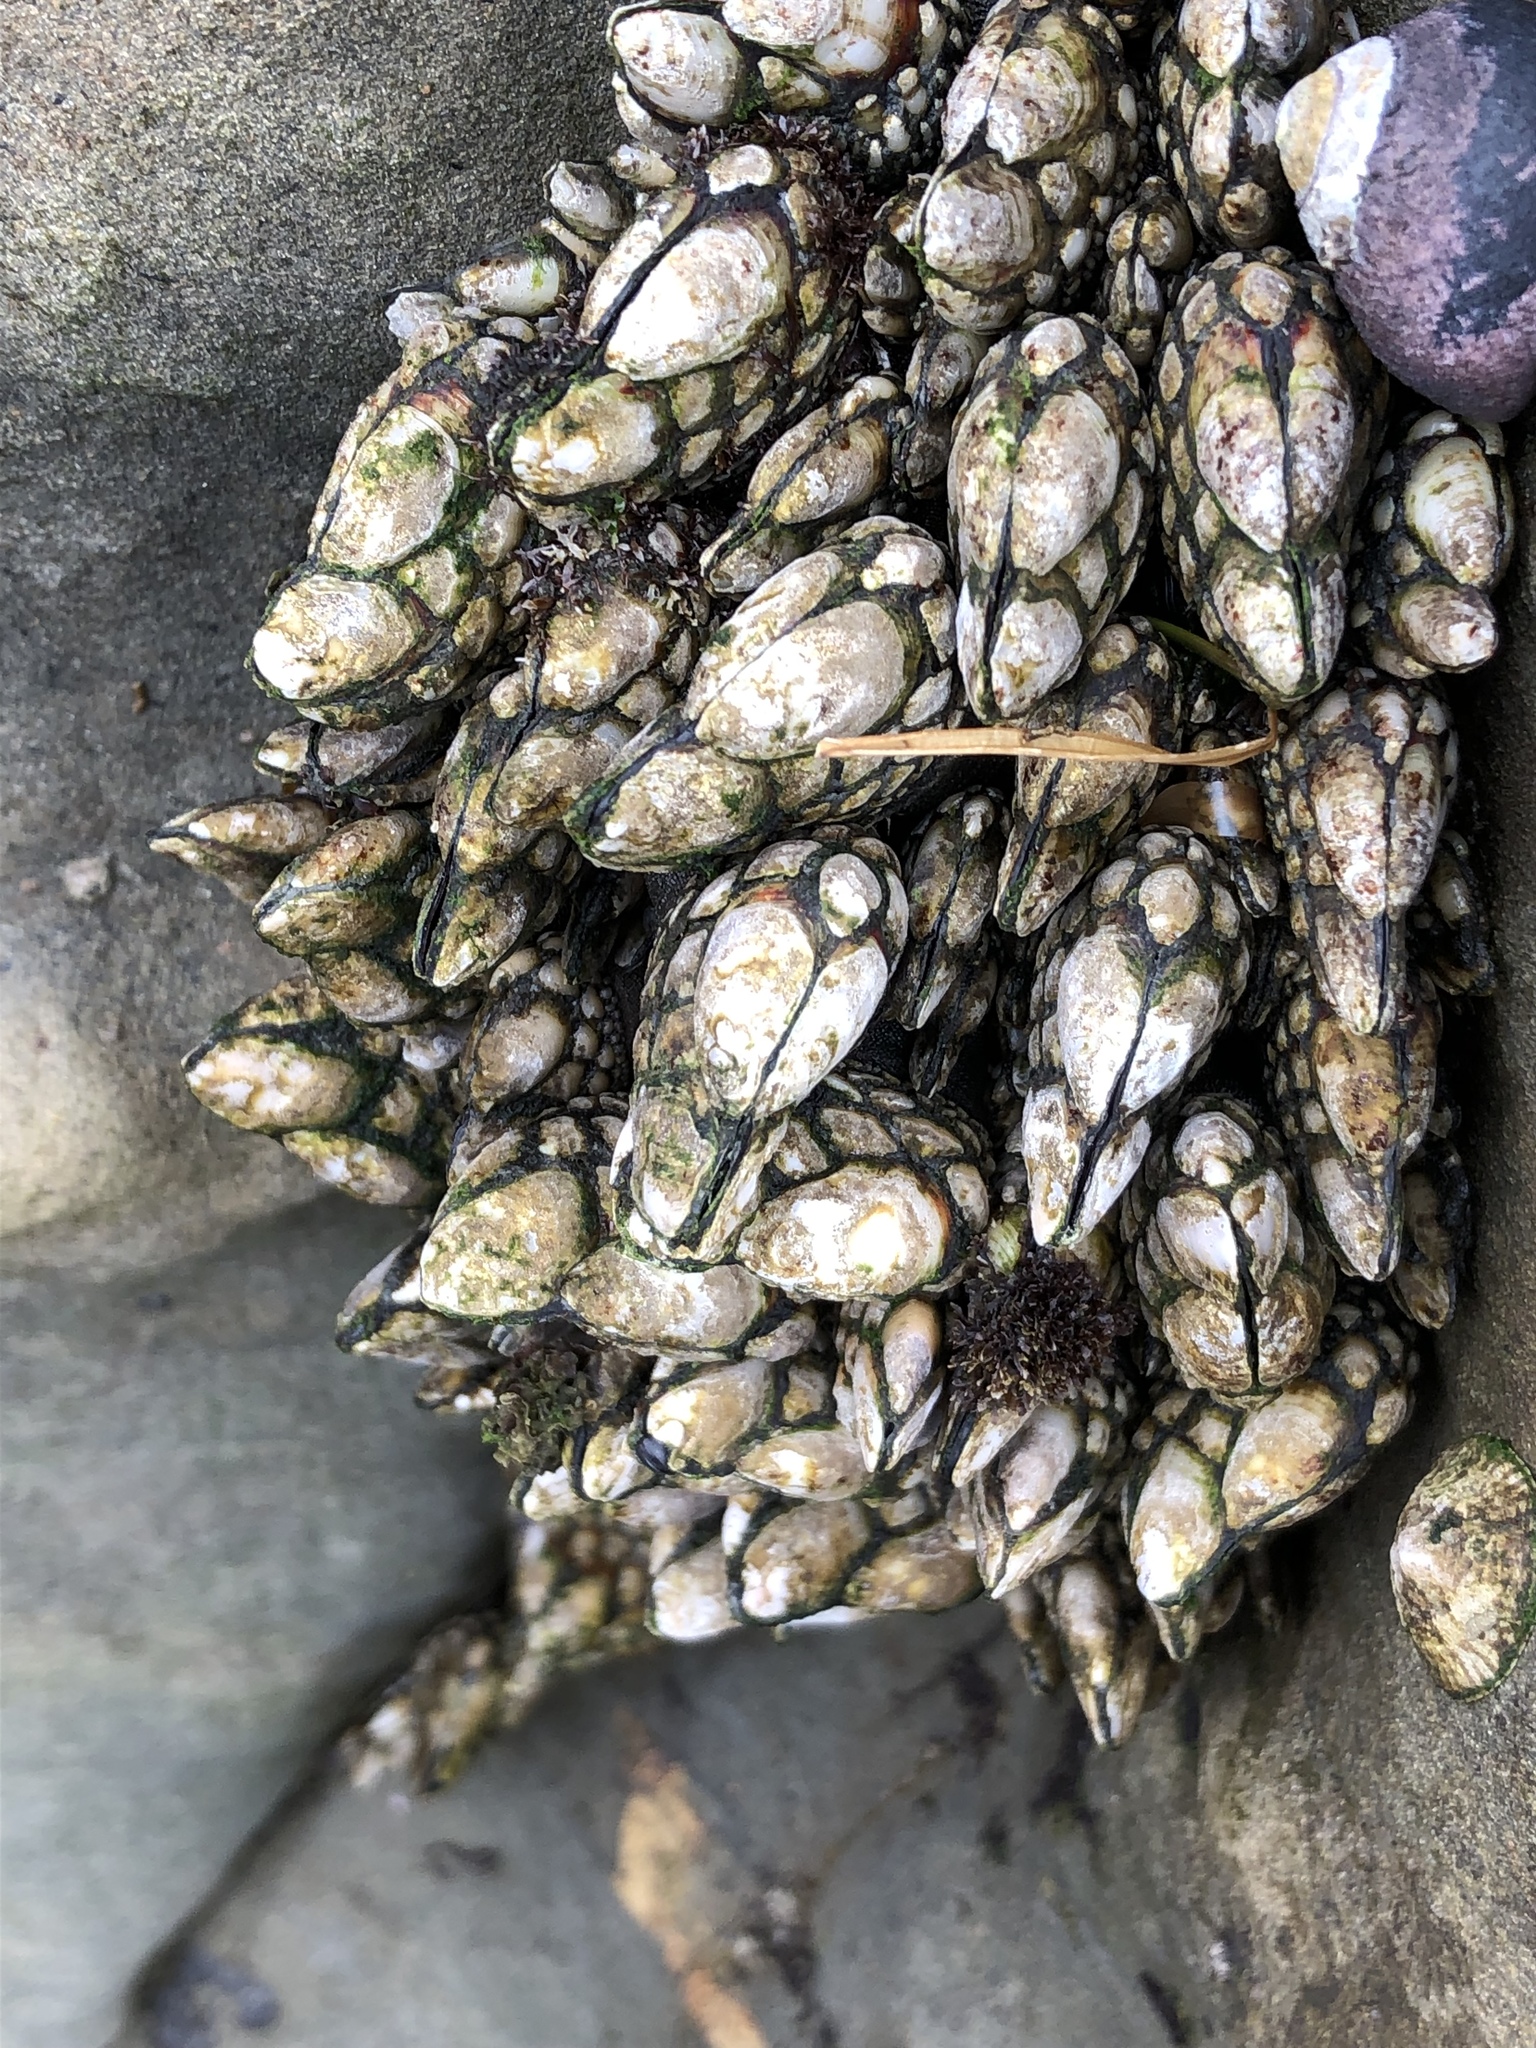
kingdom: Animalia
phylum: Arthropoda
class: Maxillopoda
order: Pedunculata
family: Pollicipedidae
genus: Pollicipes
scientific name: Pollicipes polymerus
